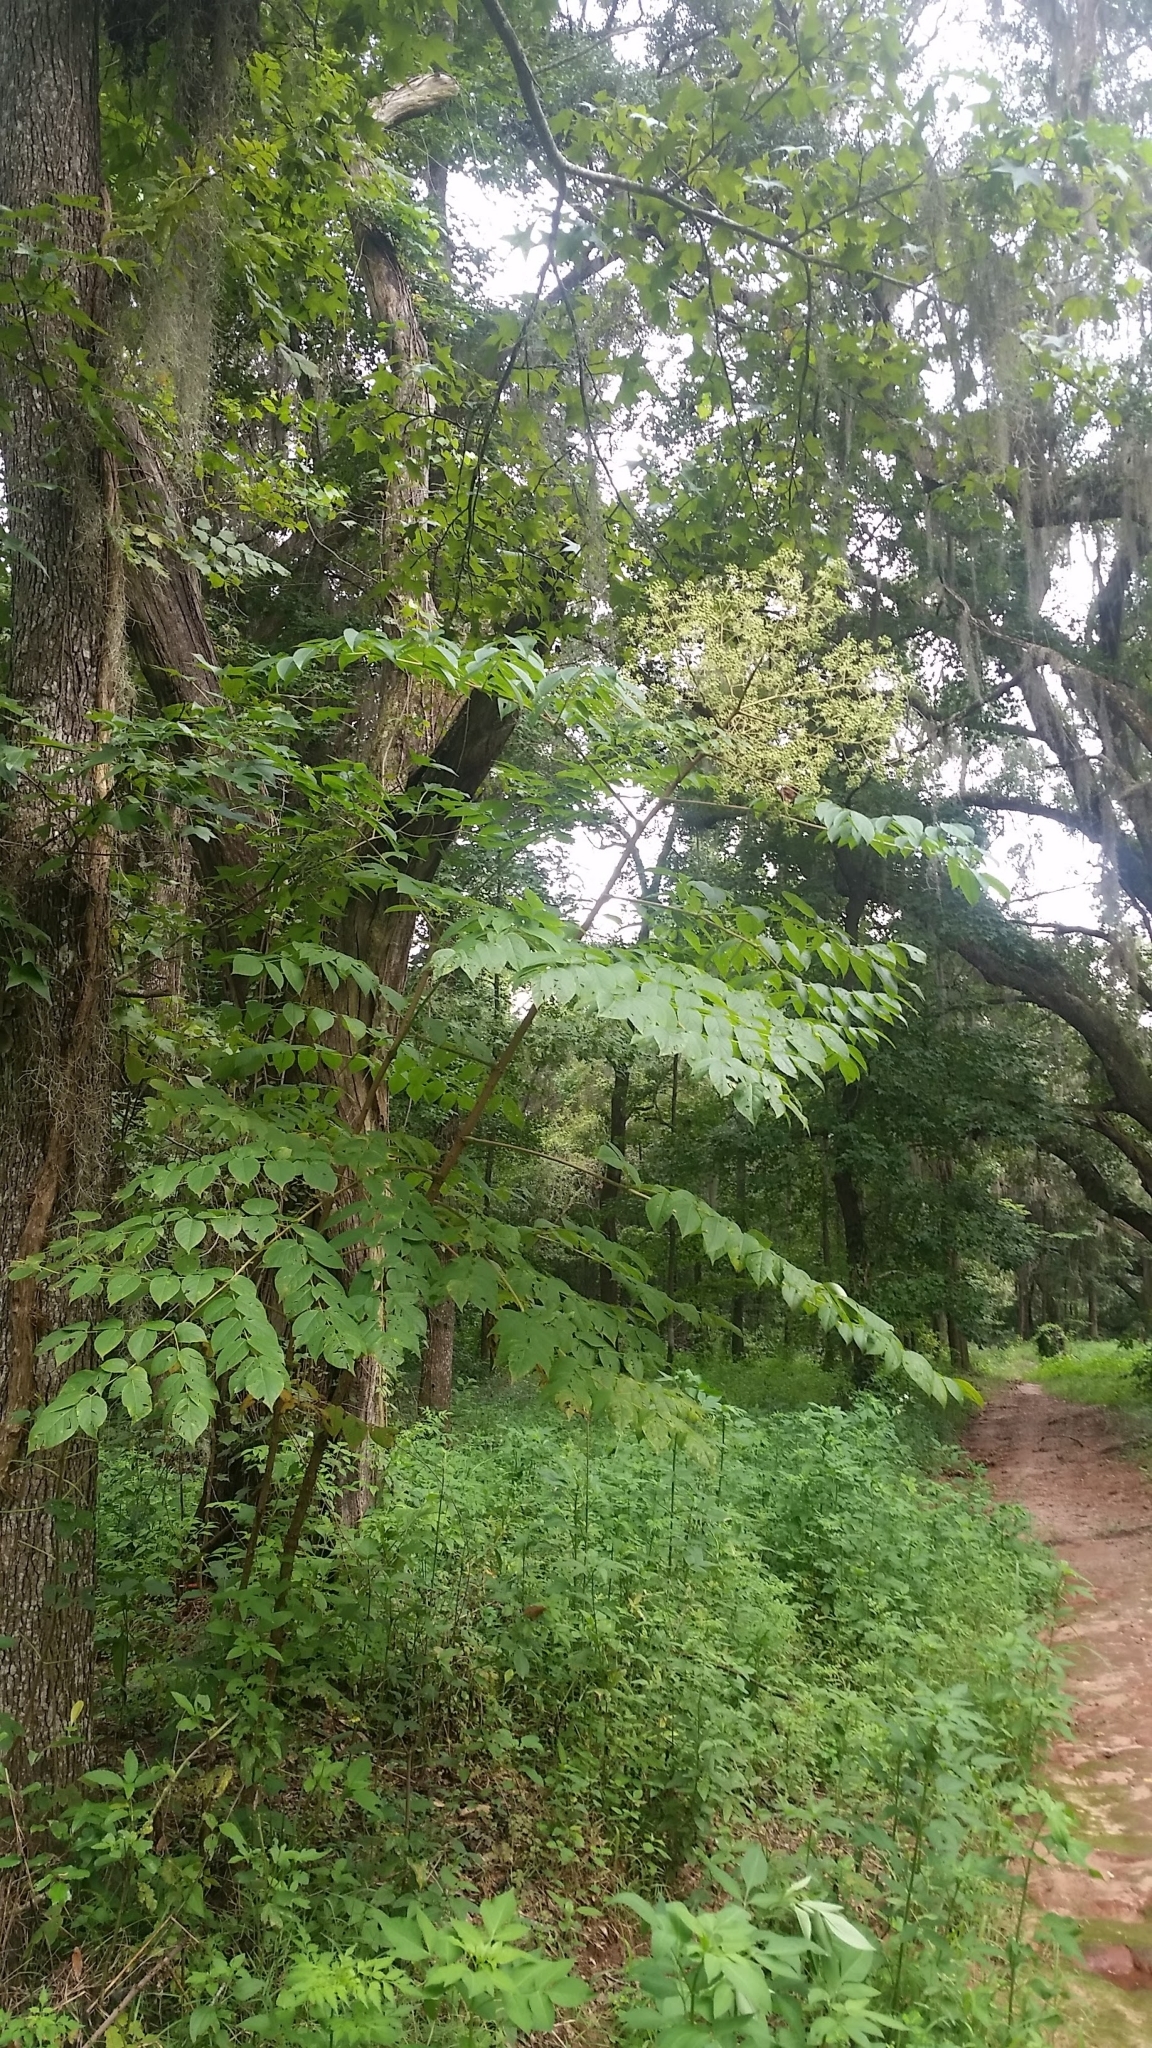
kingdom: Plantae
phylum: Tracheophyta
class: Magnoliopsida
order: Apiales
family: Araliaceae
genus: Aralia
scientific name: Aralia spinosa
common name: Hercules'-club
